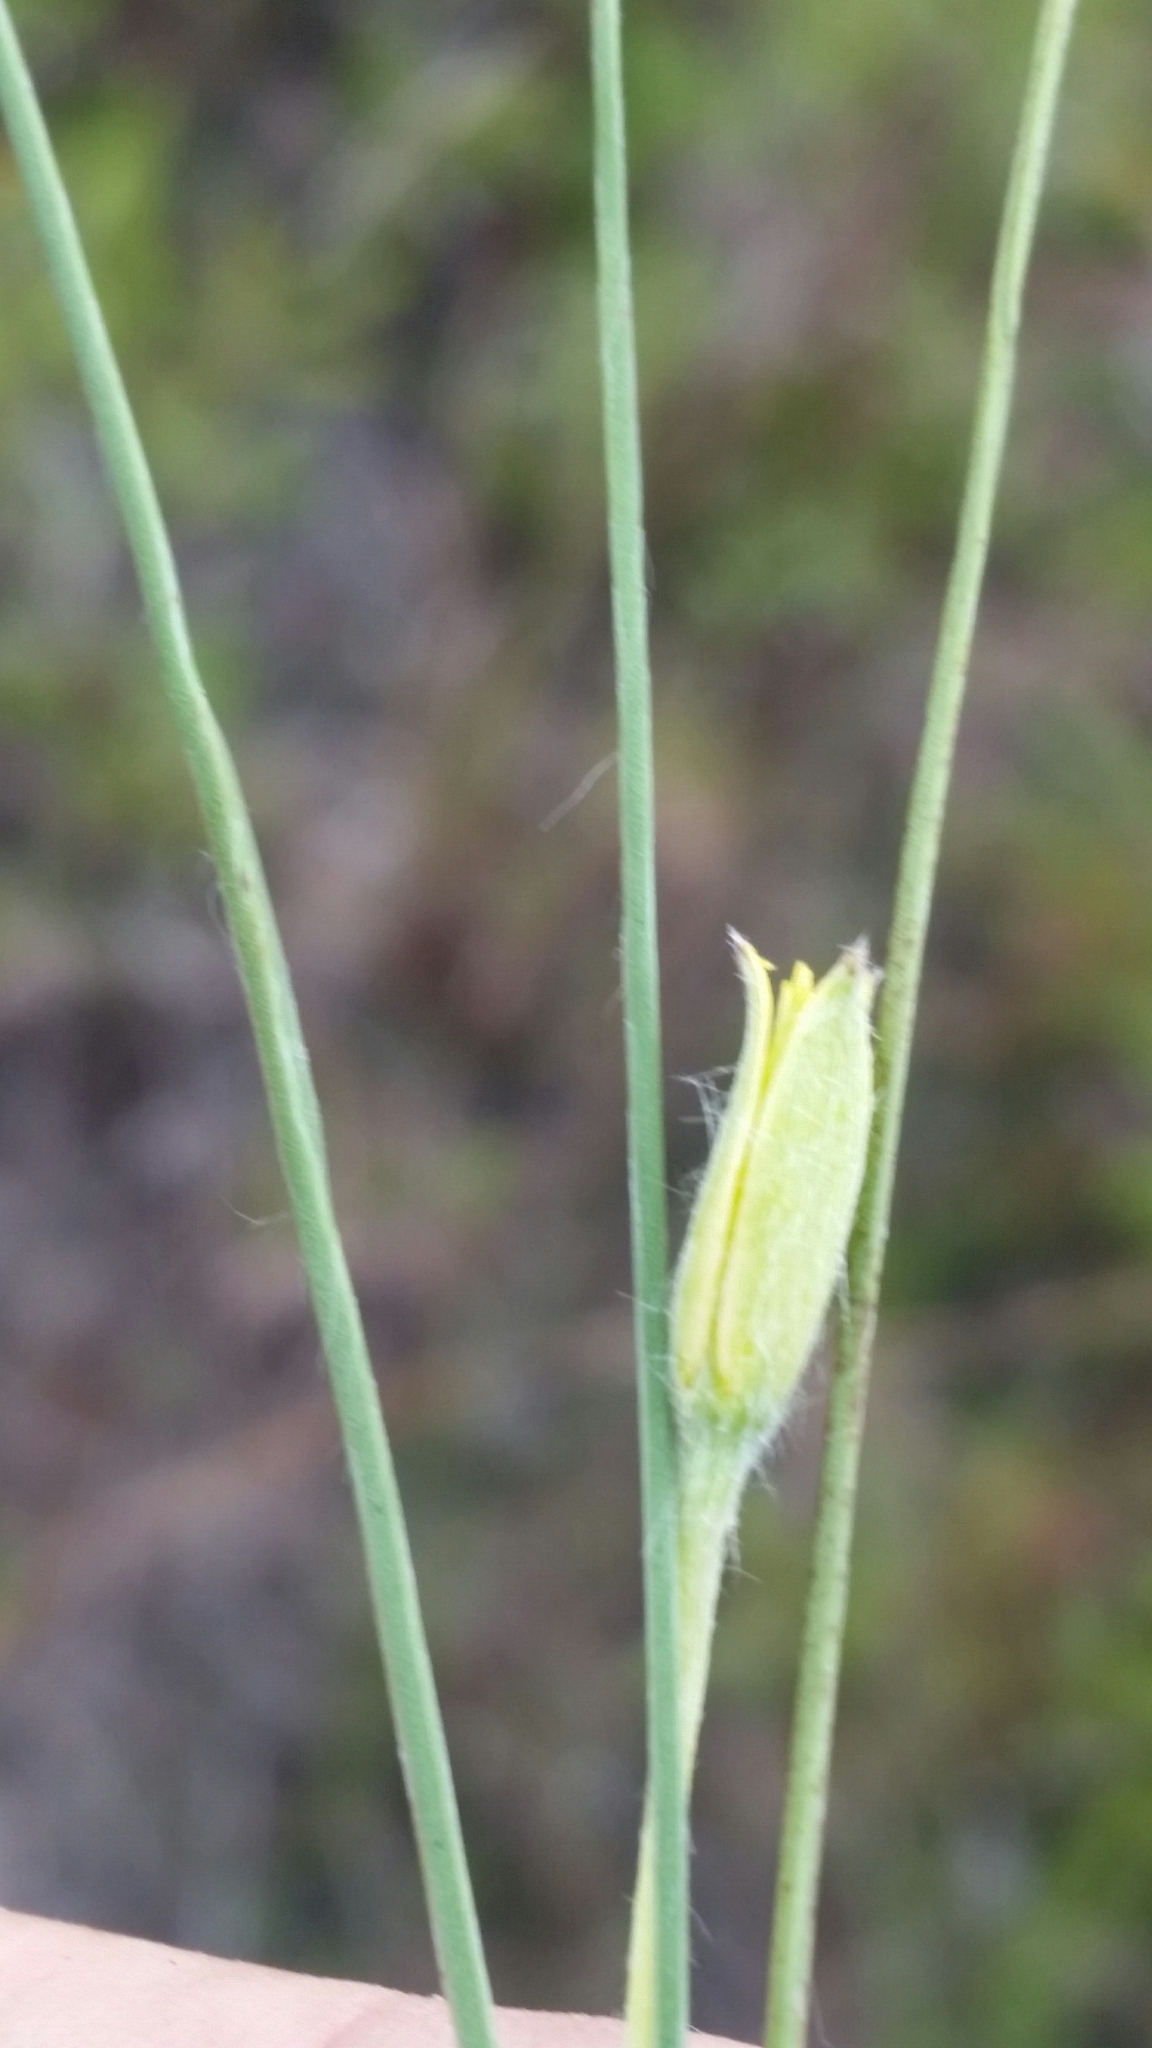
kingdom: Plantae
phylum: Tracheophyta
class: Liliopsida
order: Asparagales
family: Hypoxidaceae
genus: Hypoxis
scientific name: Hypoxis juncea
